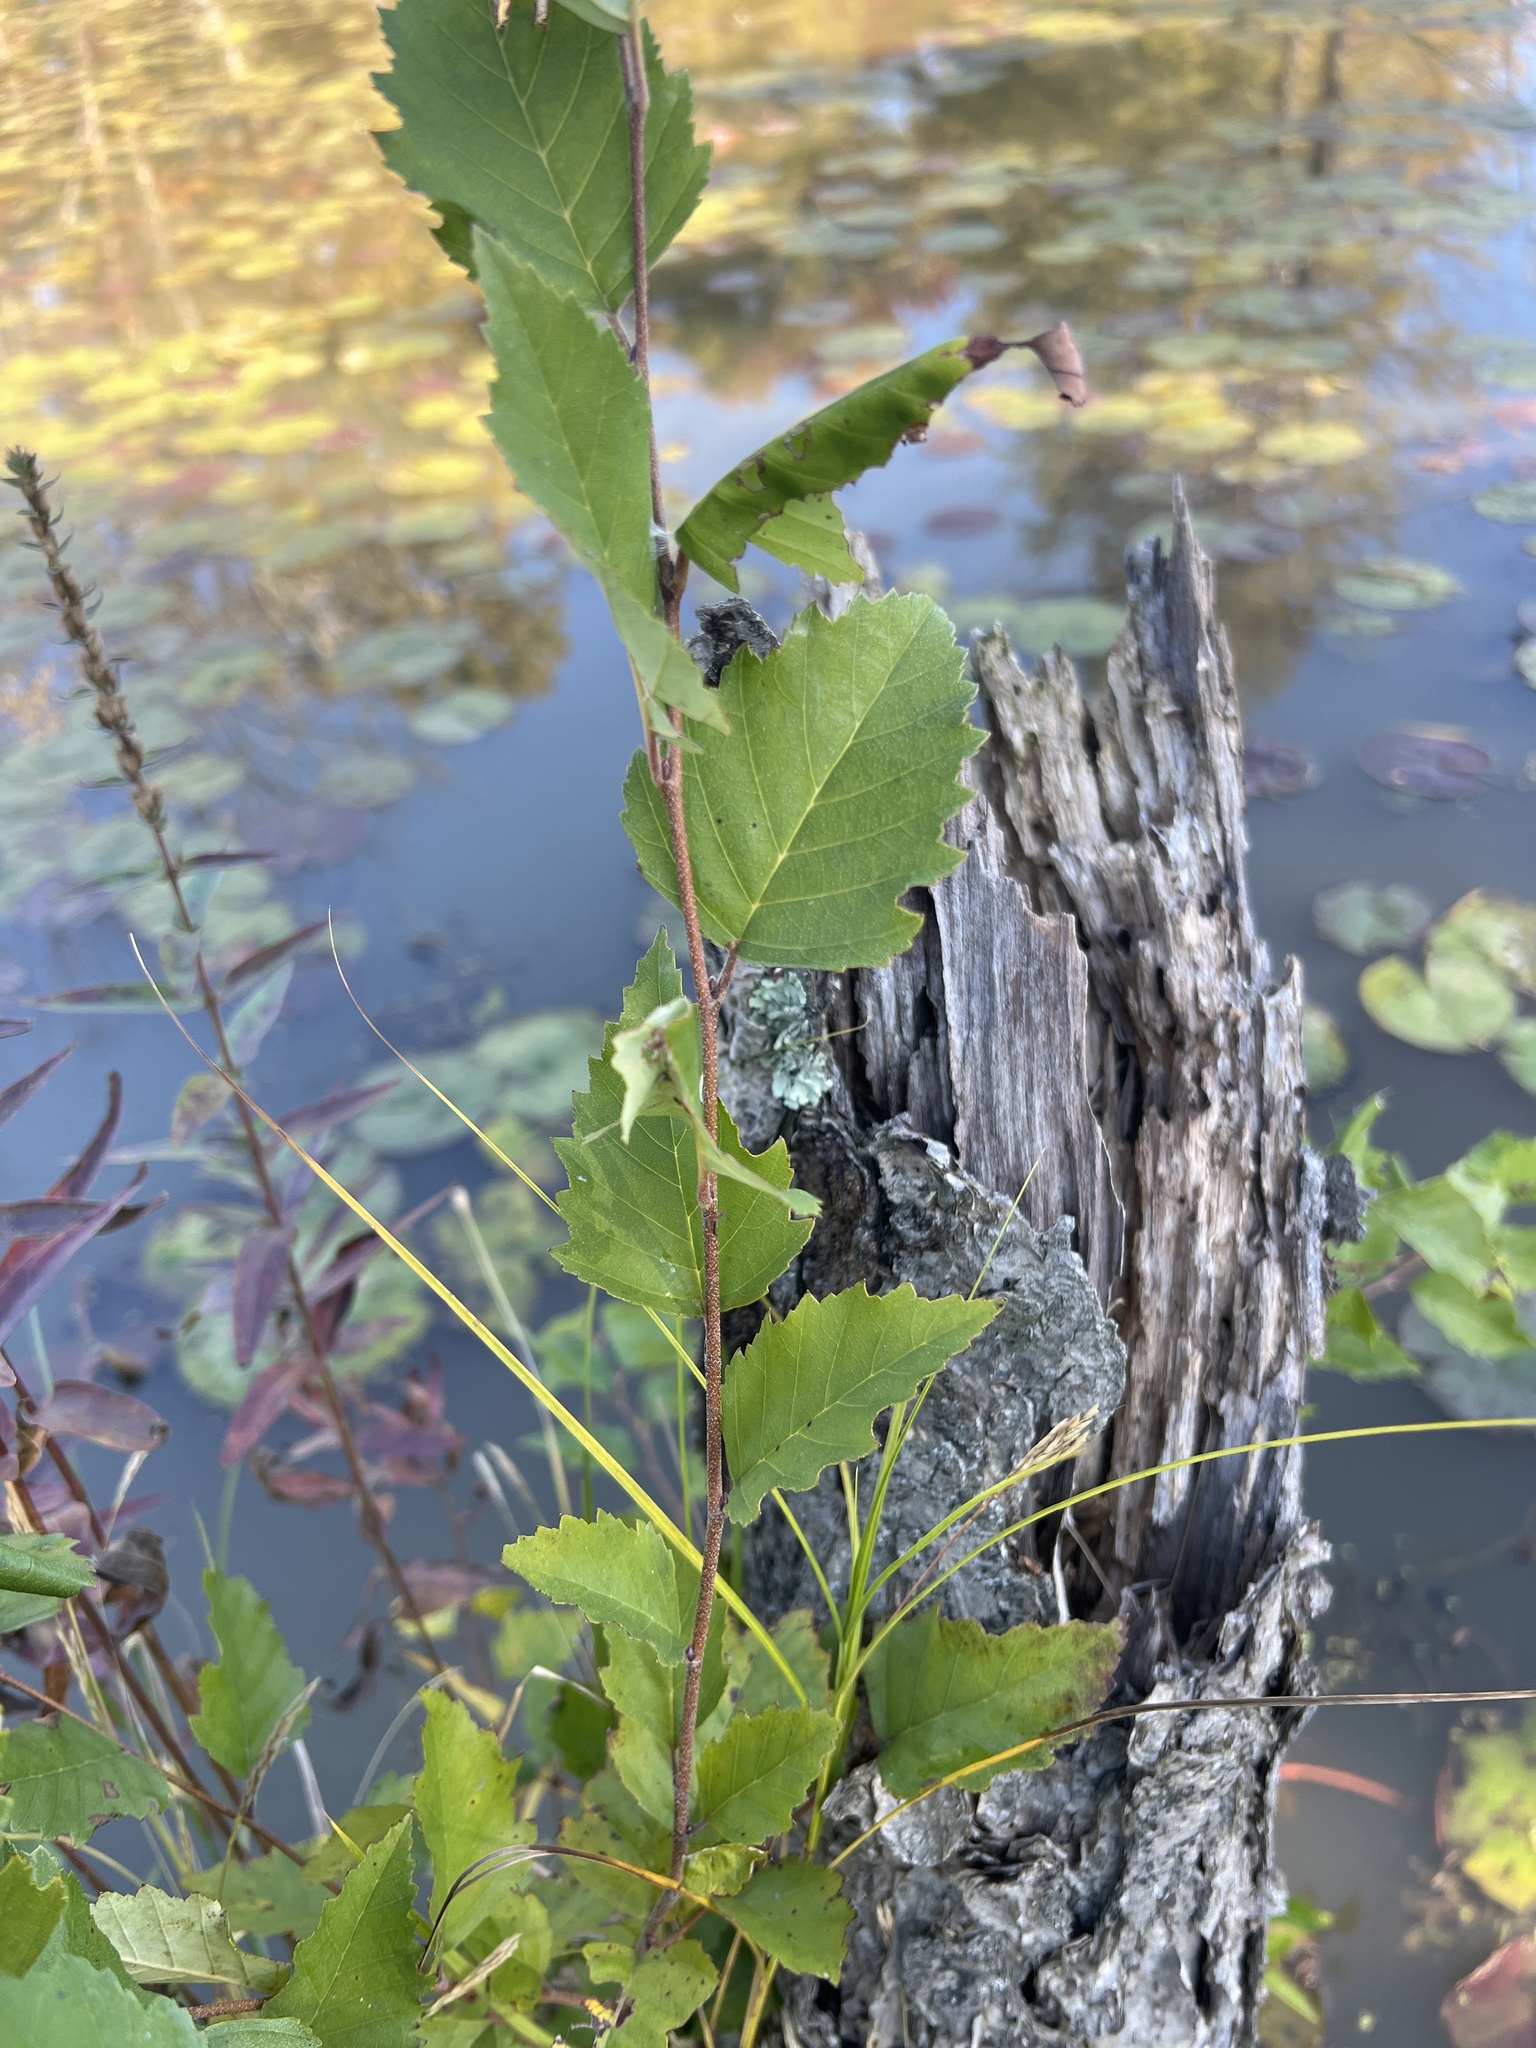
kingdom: Plantae
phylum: Tracheophyta
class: Magnoliopsida
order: Fagales
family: Betulaceae
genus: Betula
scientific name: Betula nigra
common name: Black birch
